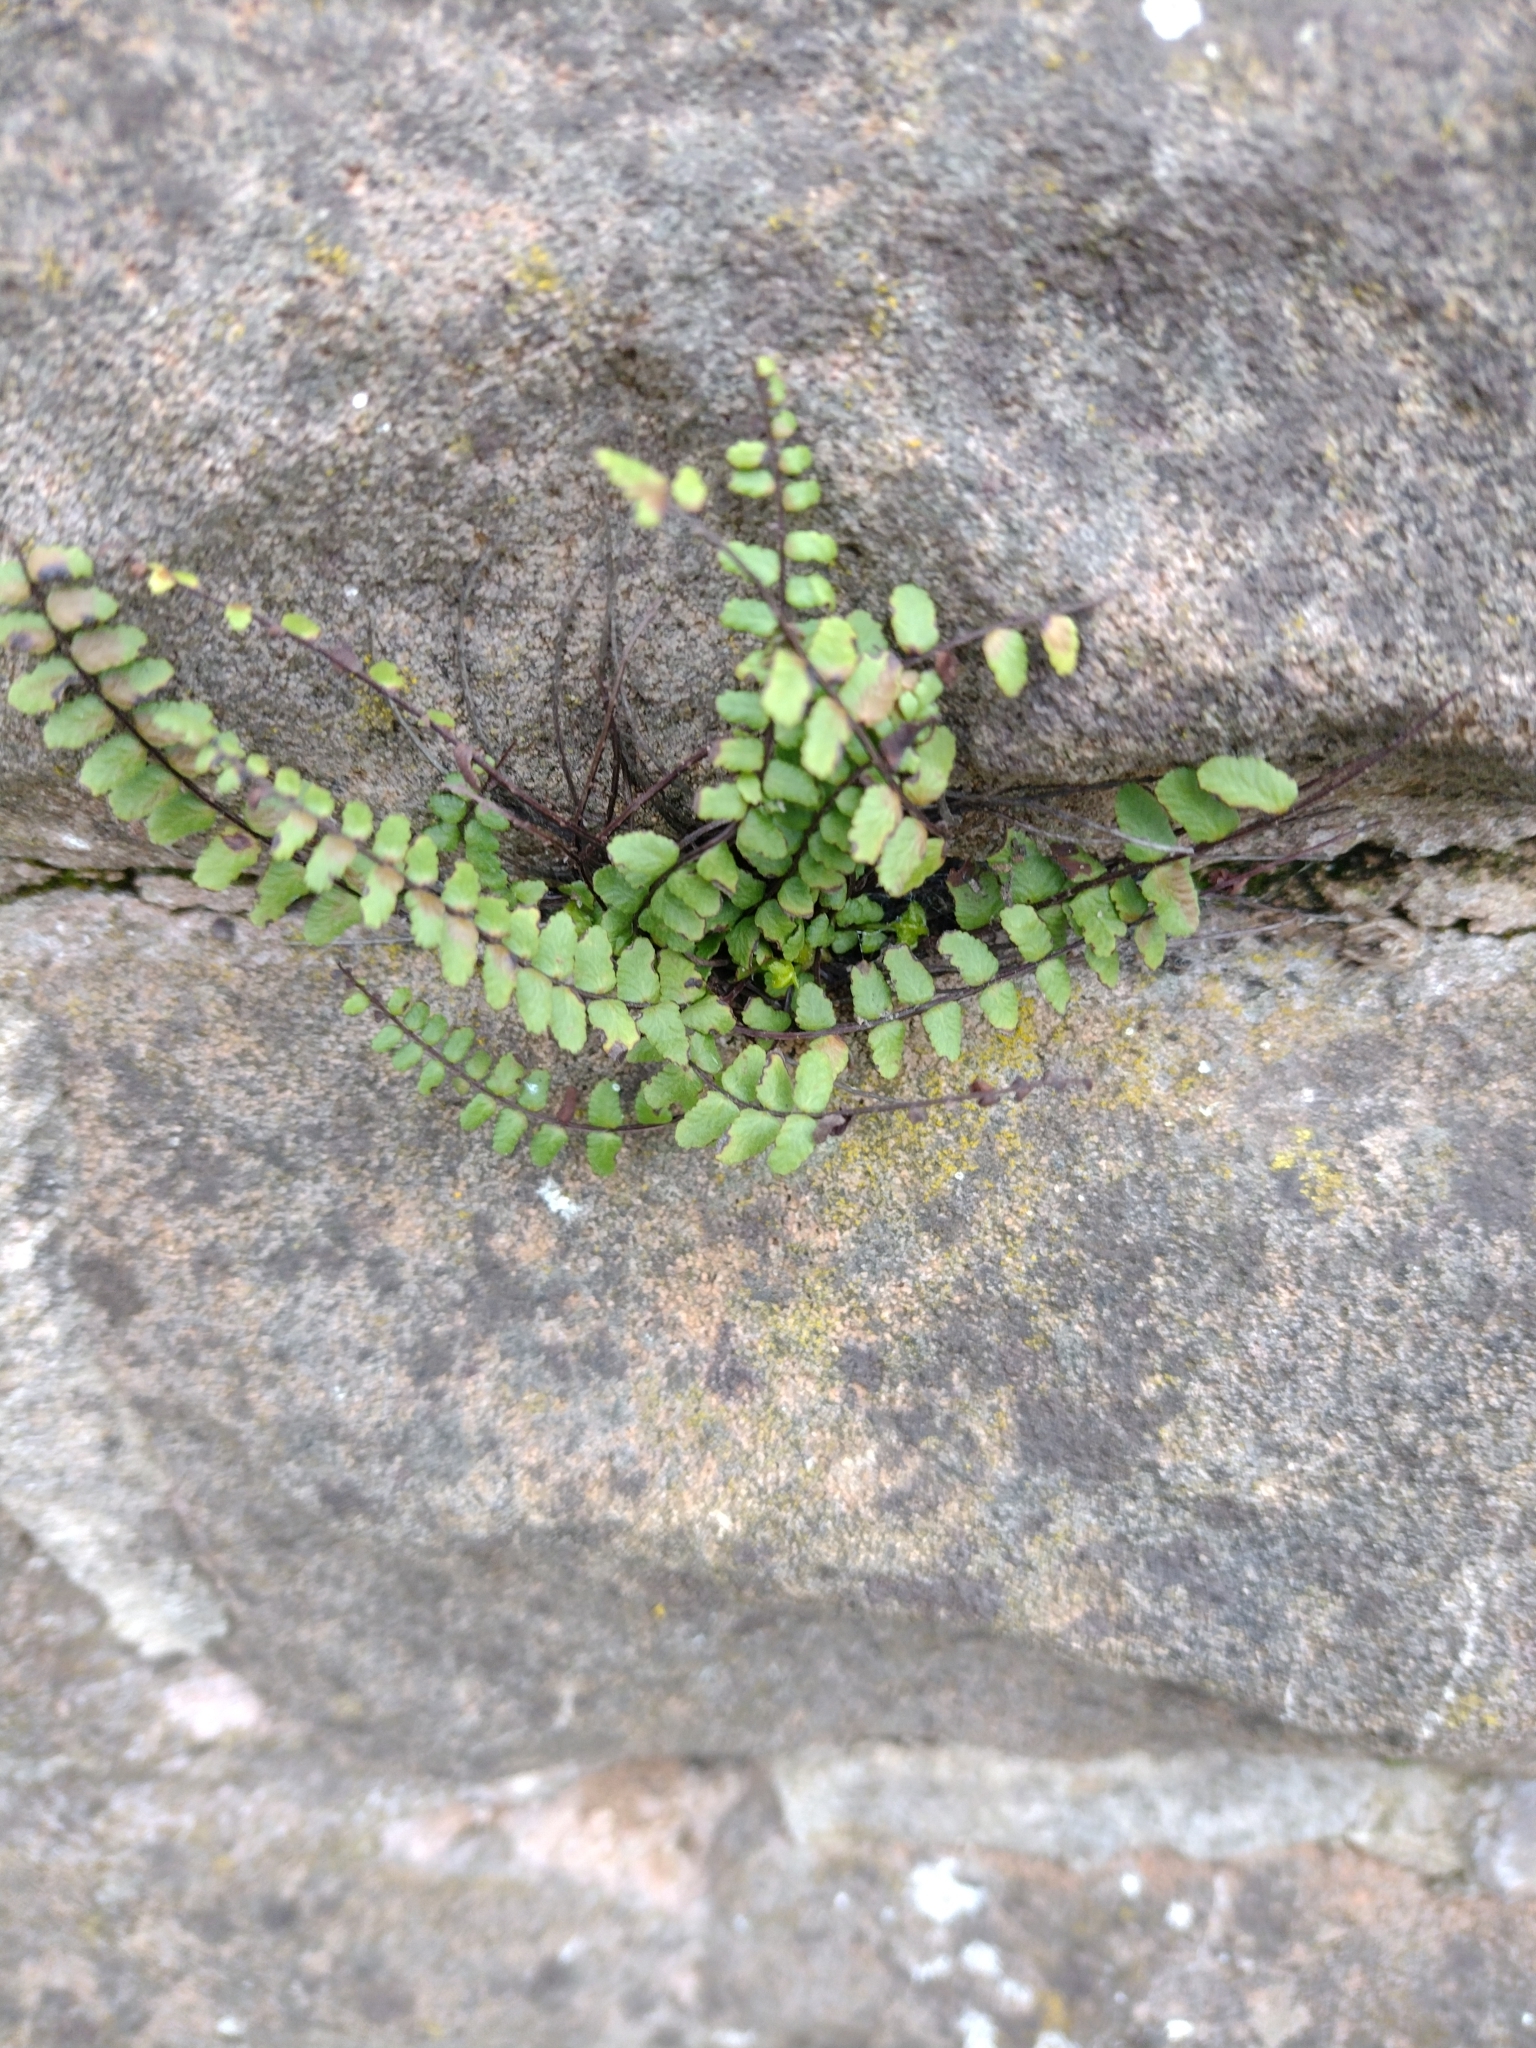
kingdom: Plantae
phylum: Tracheophyta
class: Polypodiopsida
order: Polypodiales
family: Aspleniaceae
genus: Asplenium
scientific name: Asplenium trichomanes
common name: Maidenhair spleenwort
